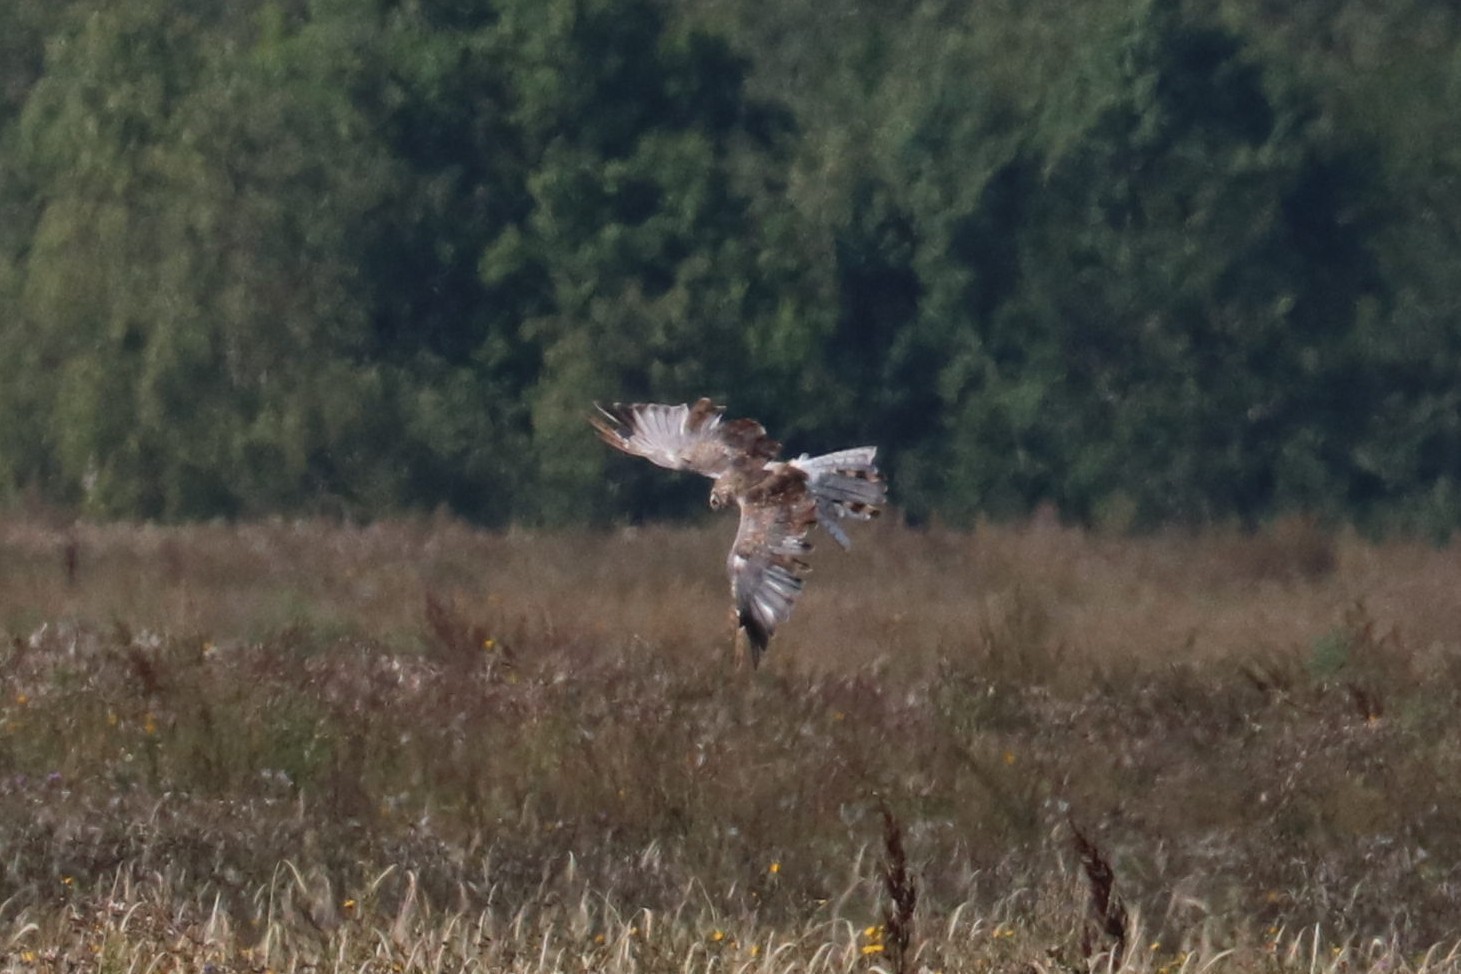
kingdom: Animalia
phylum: Chordata
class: Aves
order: Accipitriformes
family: Accipitridae
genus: Circus
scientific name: Circus cyaneus
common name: Hen harrier
